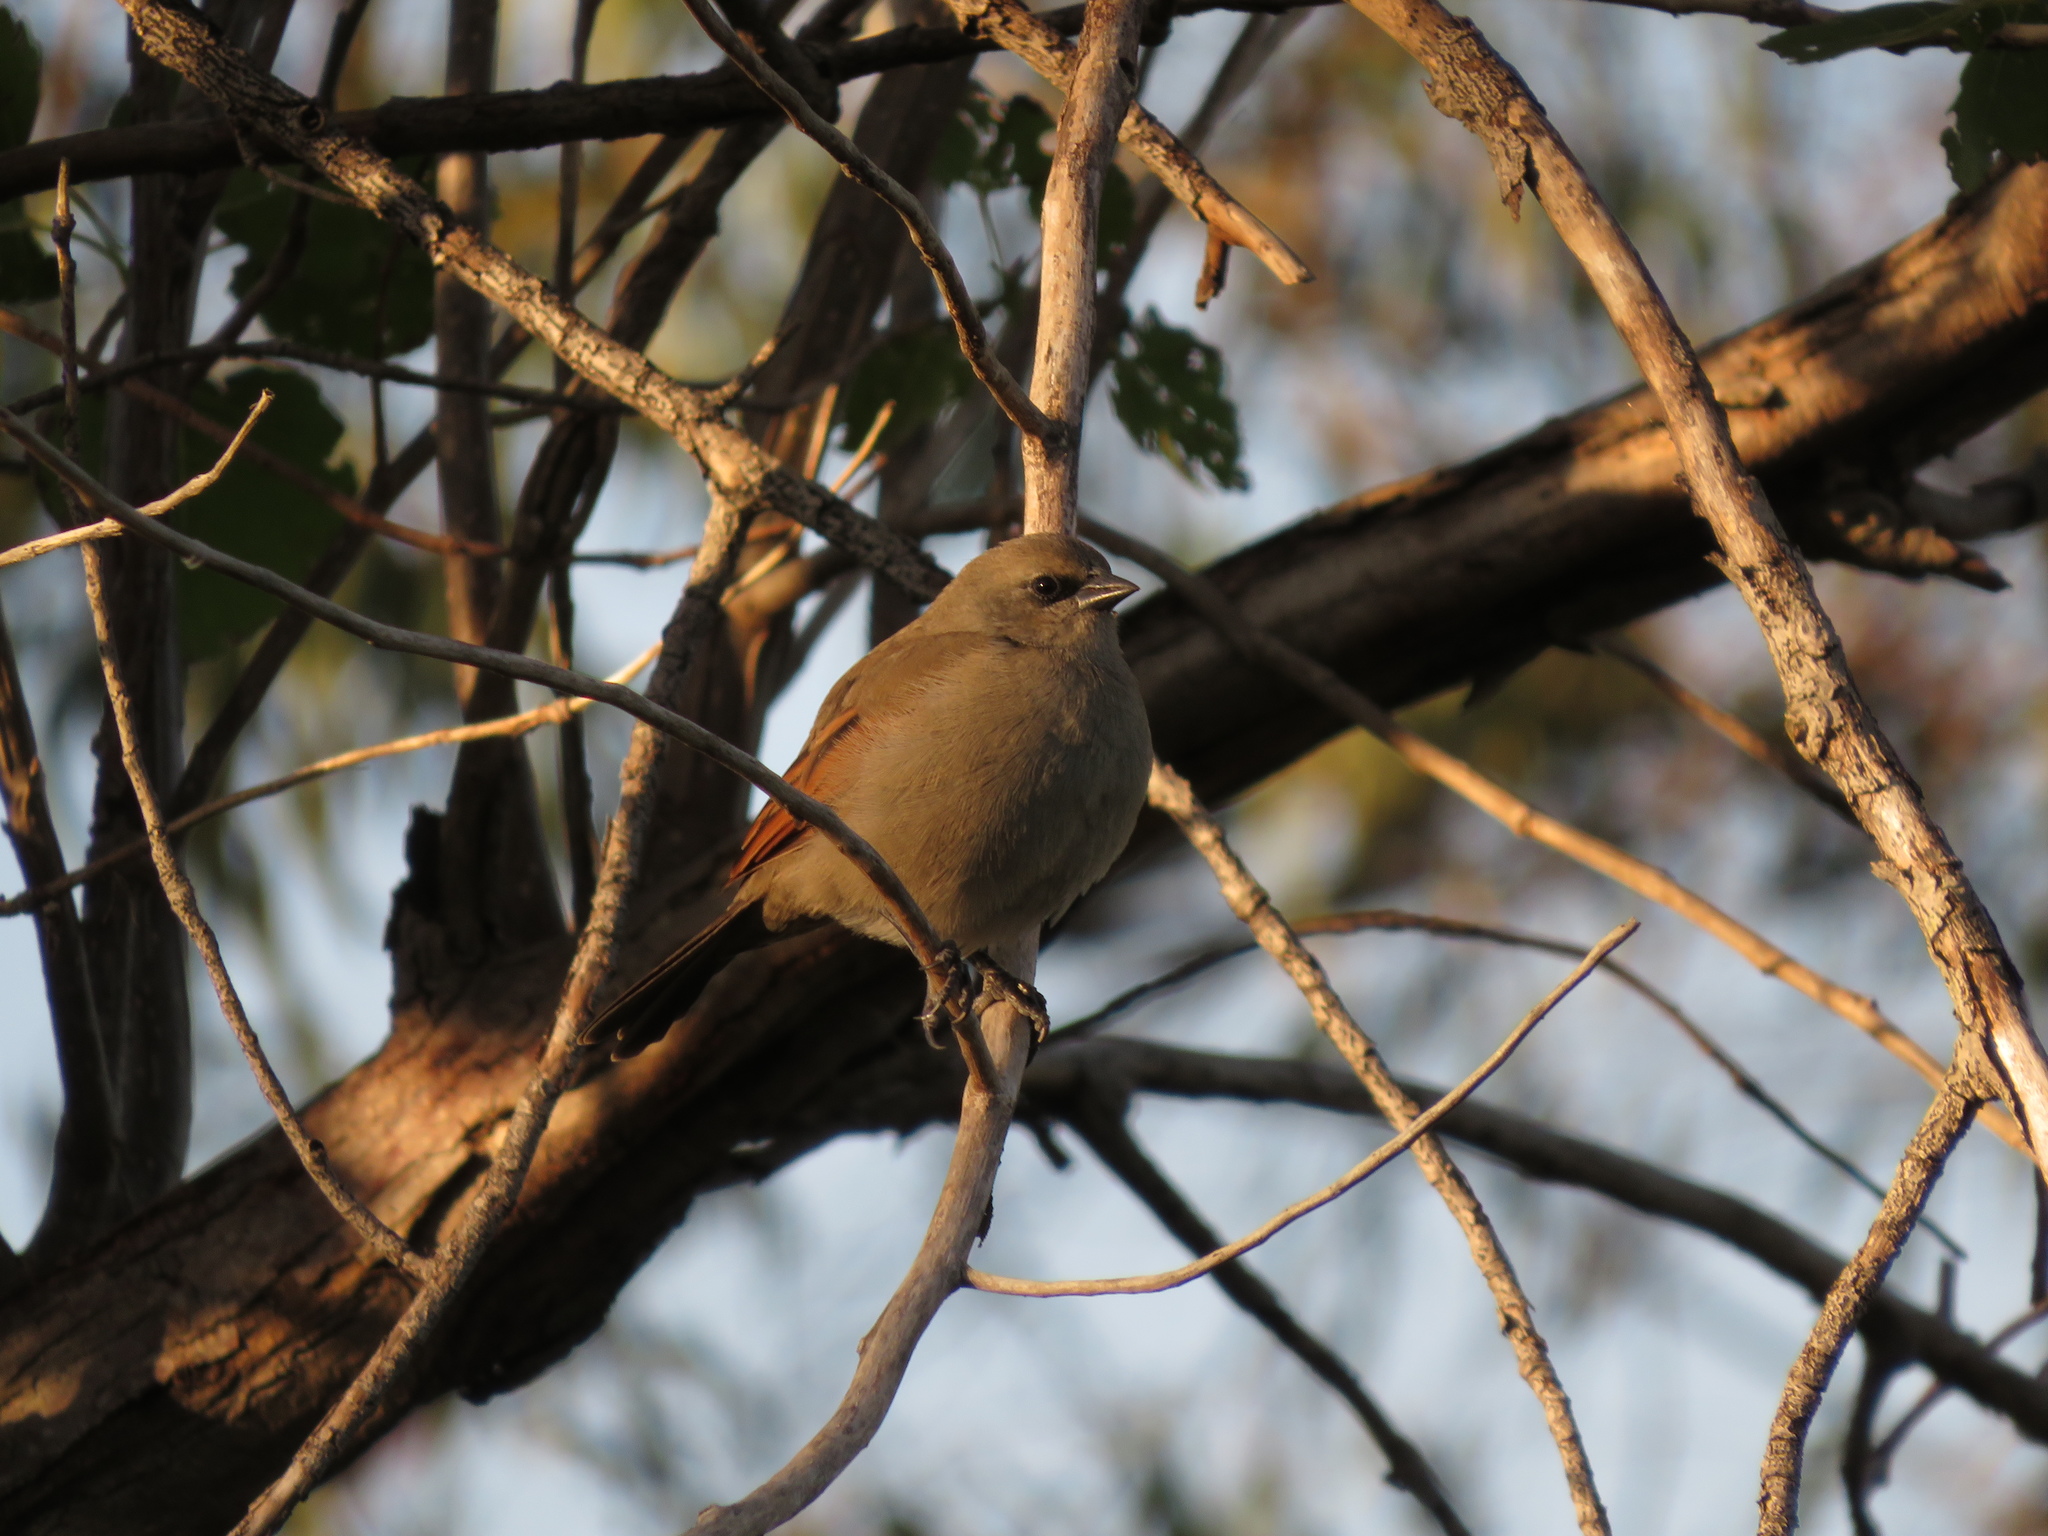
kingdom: Animalia
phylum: Chordata
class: Aves
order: Passeriformes
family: Icteridae
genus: Agelaioides
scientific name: Agelaioides badius
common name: Baywing
